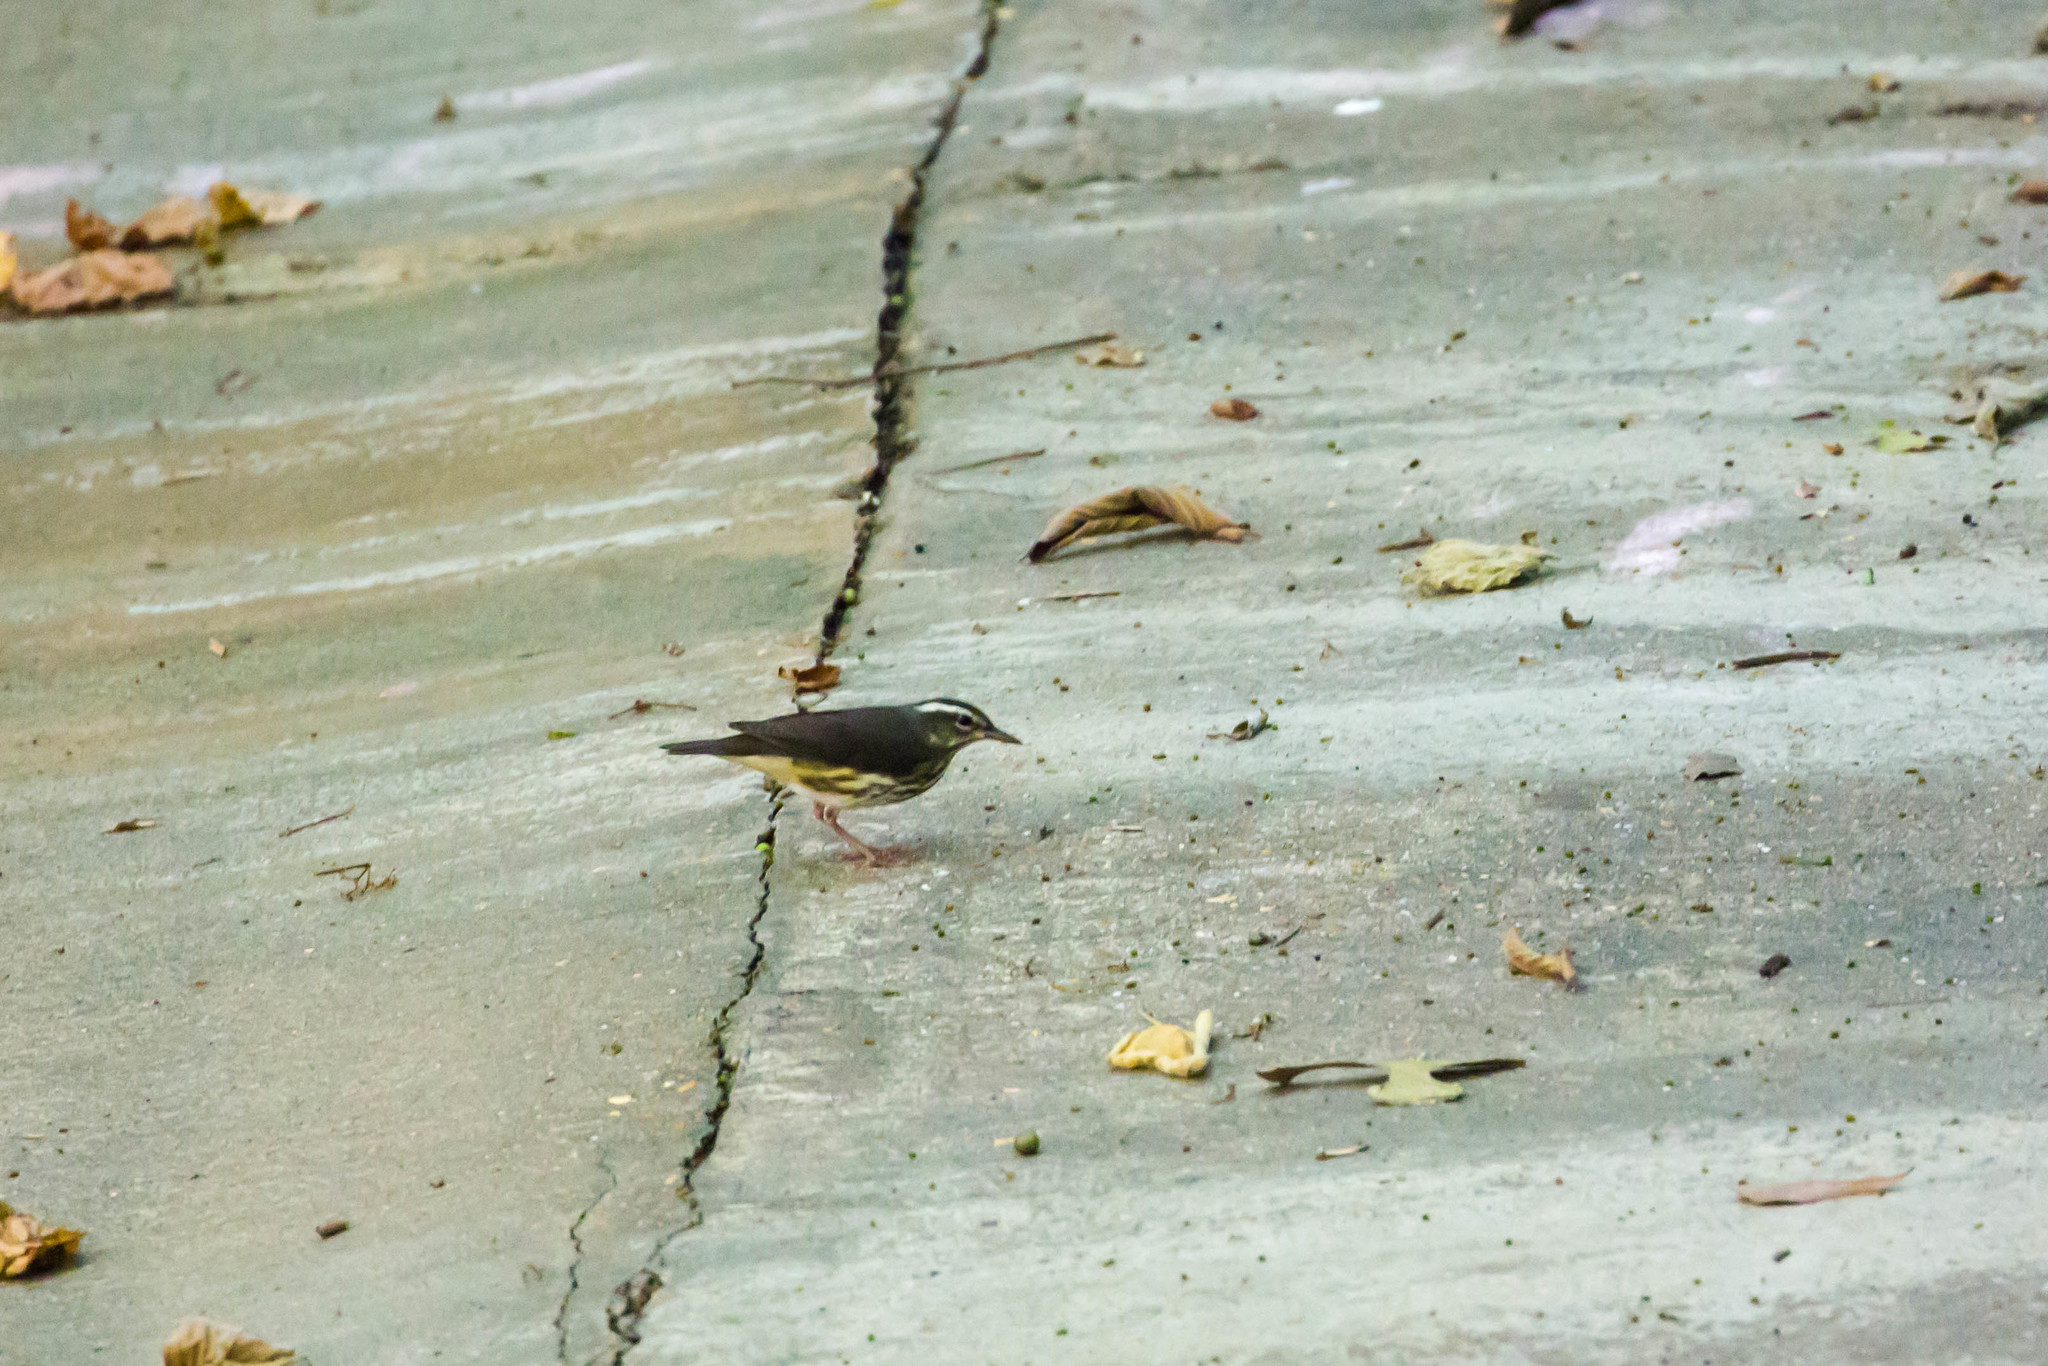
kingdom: Animalia
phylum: Chordata
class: Aves
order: Passeriformes
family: Parulidae
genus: Parkesia
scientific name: Parkesia motacilla
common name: Louisiana waterthrush
